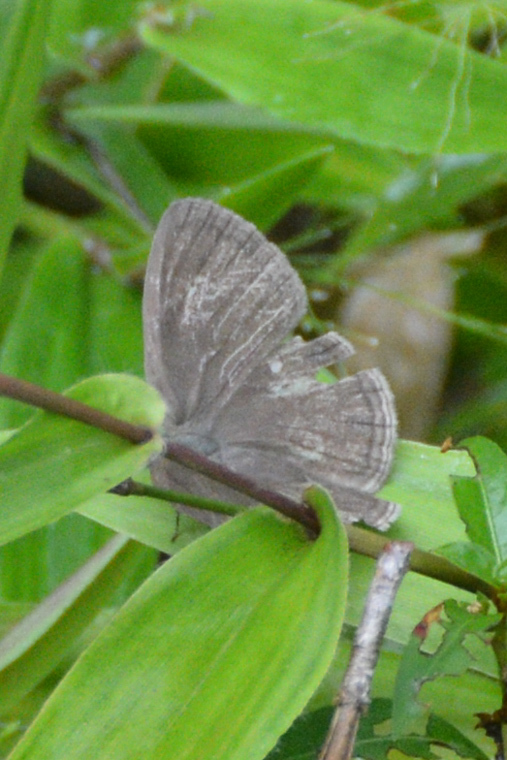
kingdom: Animalia
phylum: Arthropoda
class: Insecta
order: Lepidoptera
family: Nymphalidae
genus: Hermeuptychia
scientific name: Hermeuptychia
